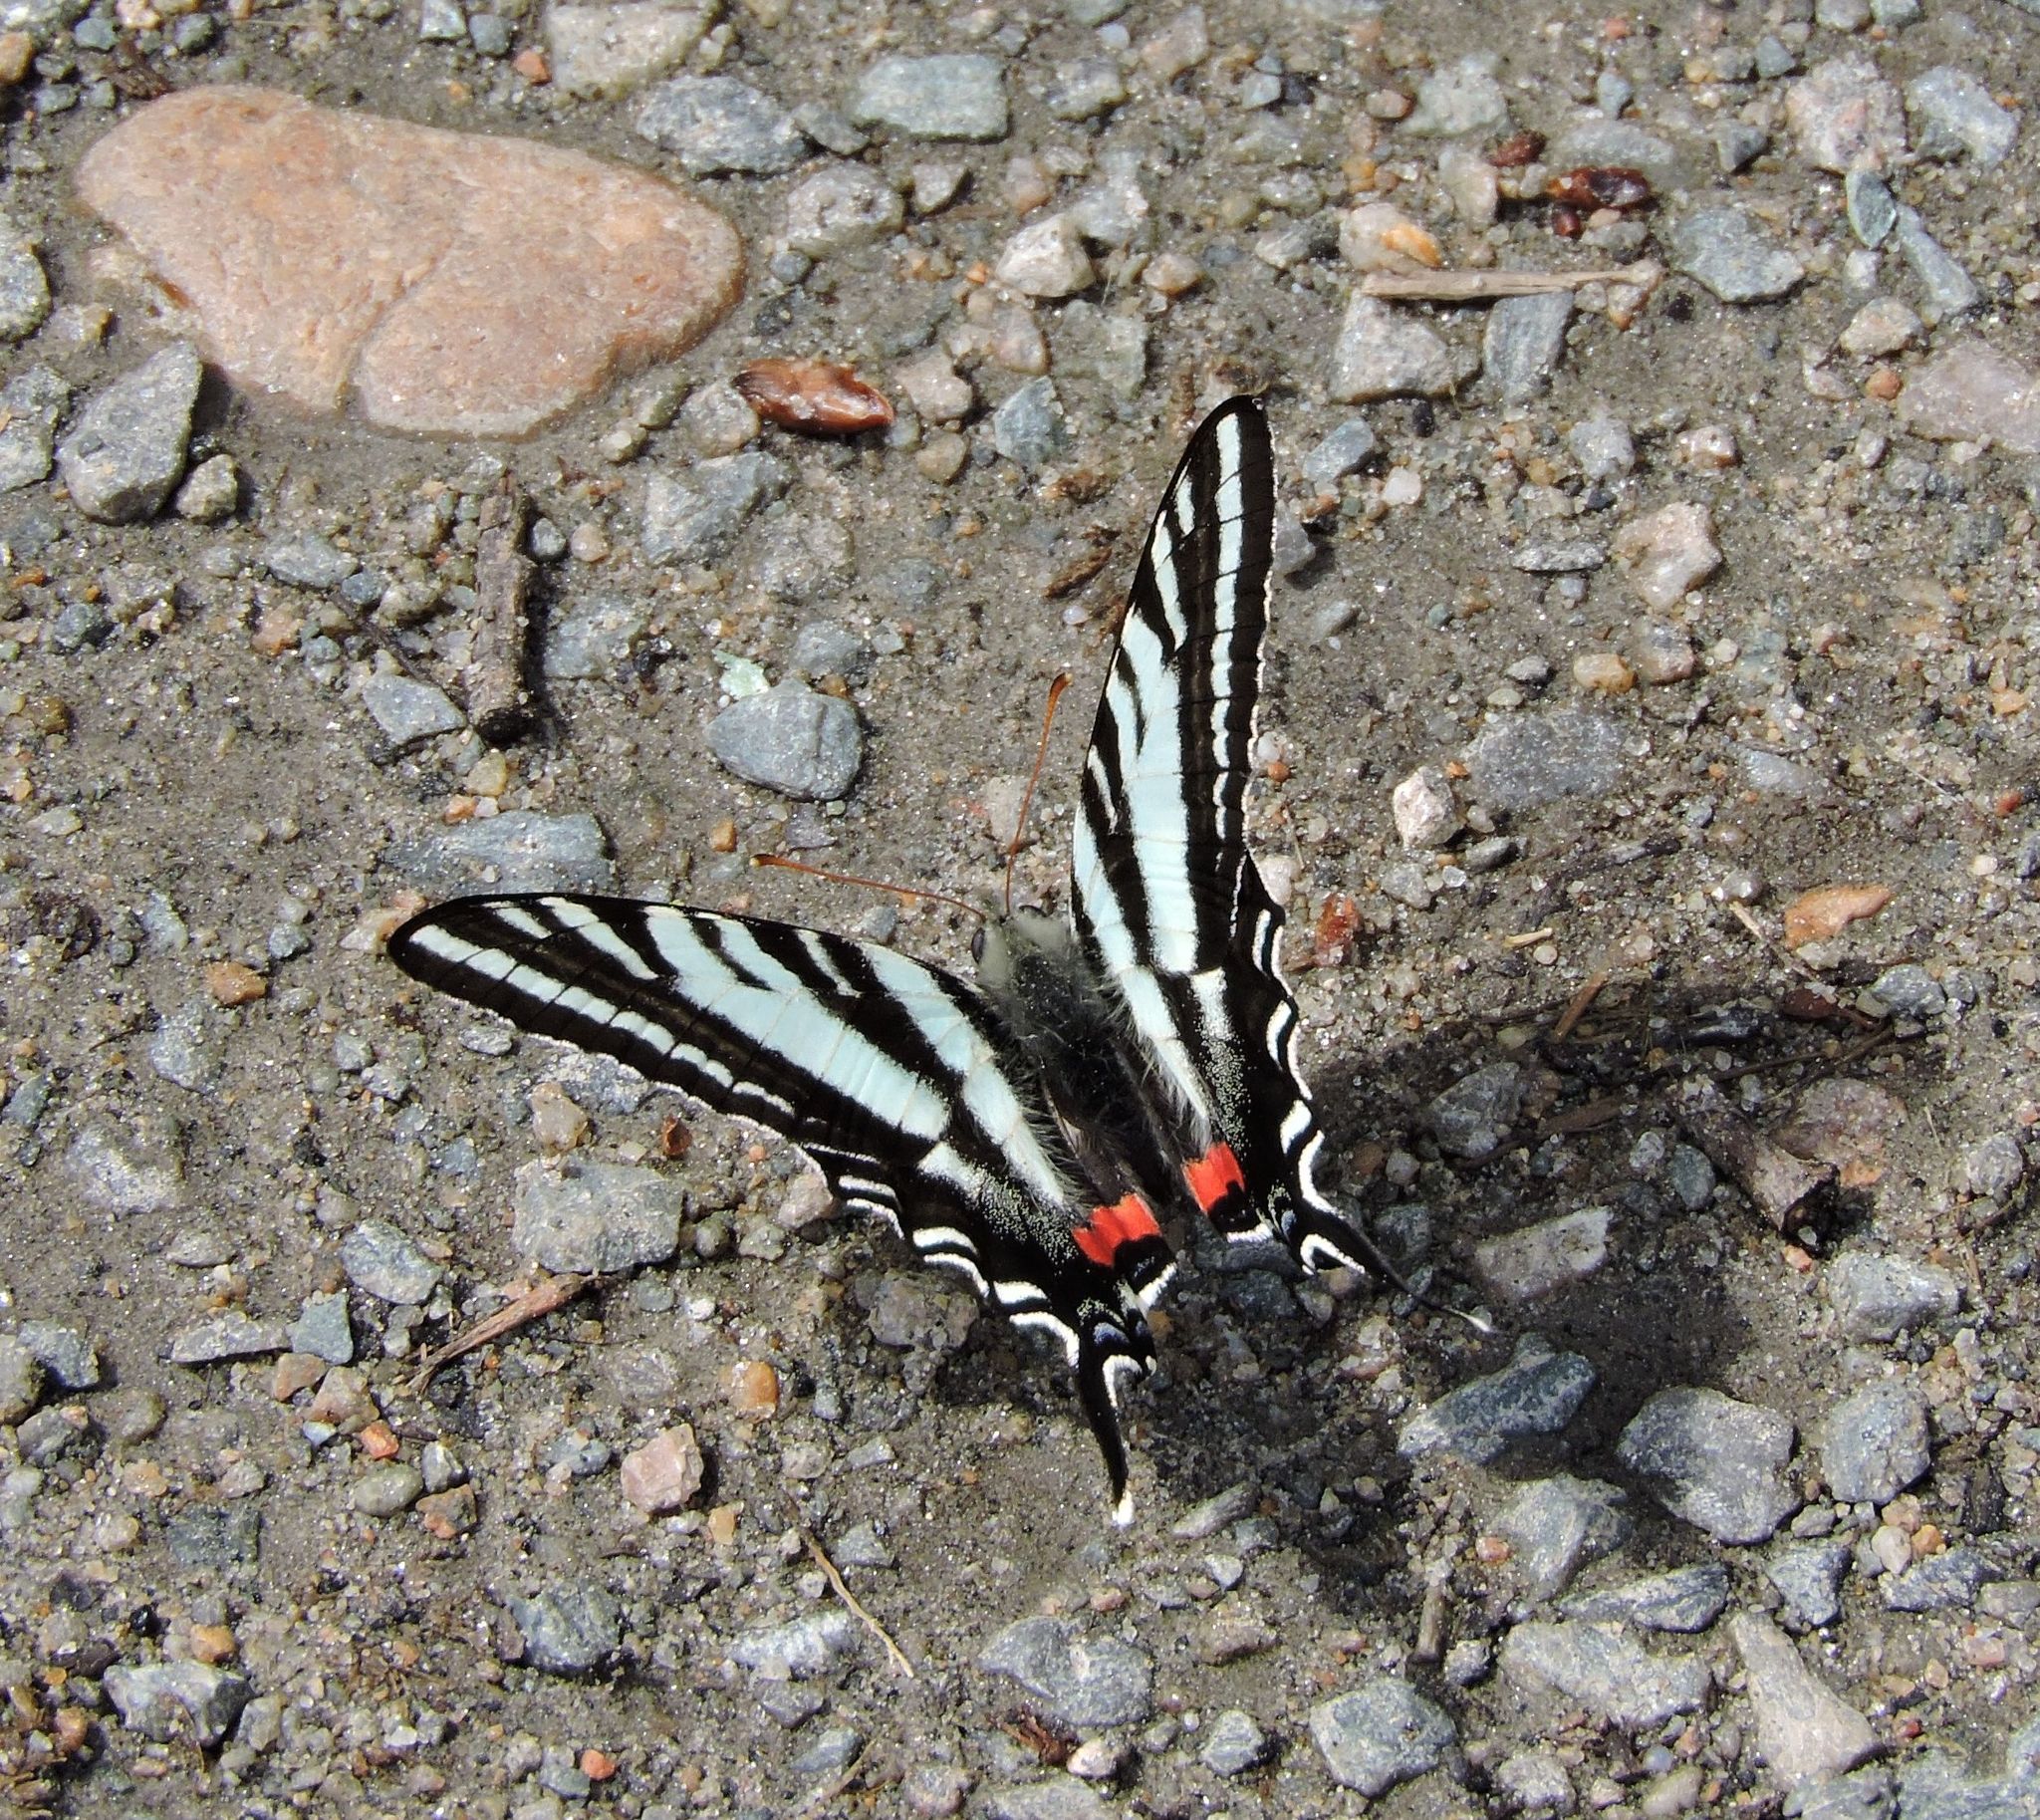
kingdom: Animalia
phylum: Arthropoda
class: Insecta
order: Lepidoptera
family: Papilionidae
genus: Protographium
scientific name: Protographium marcellus
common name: Zebra swallowtail
